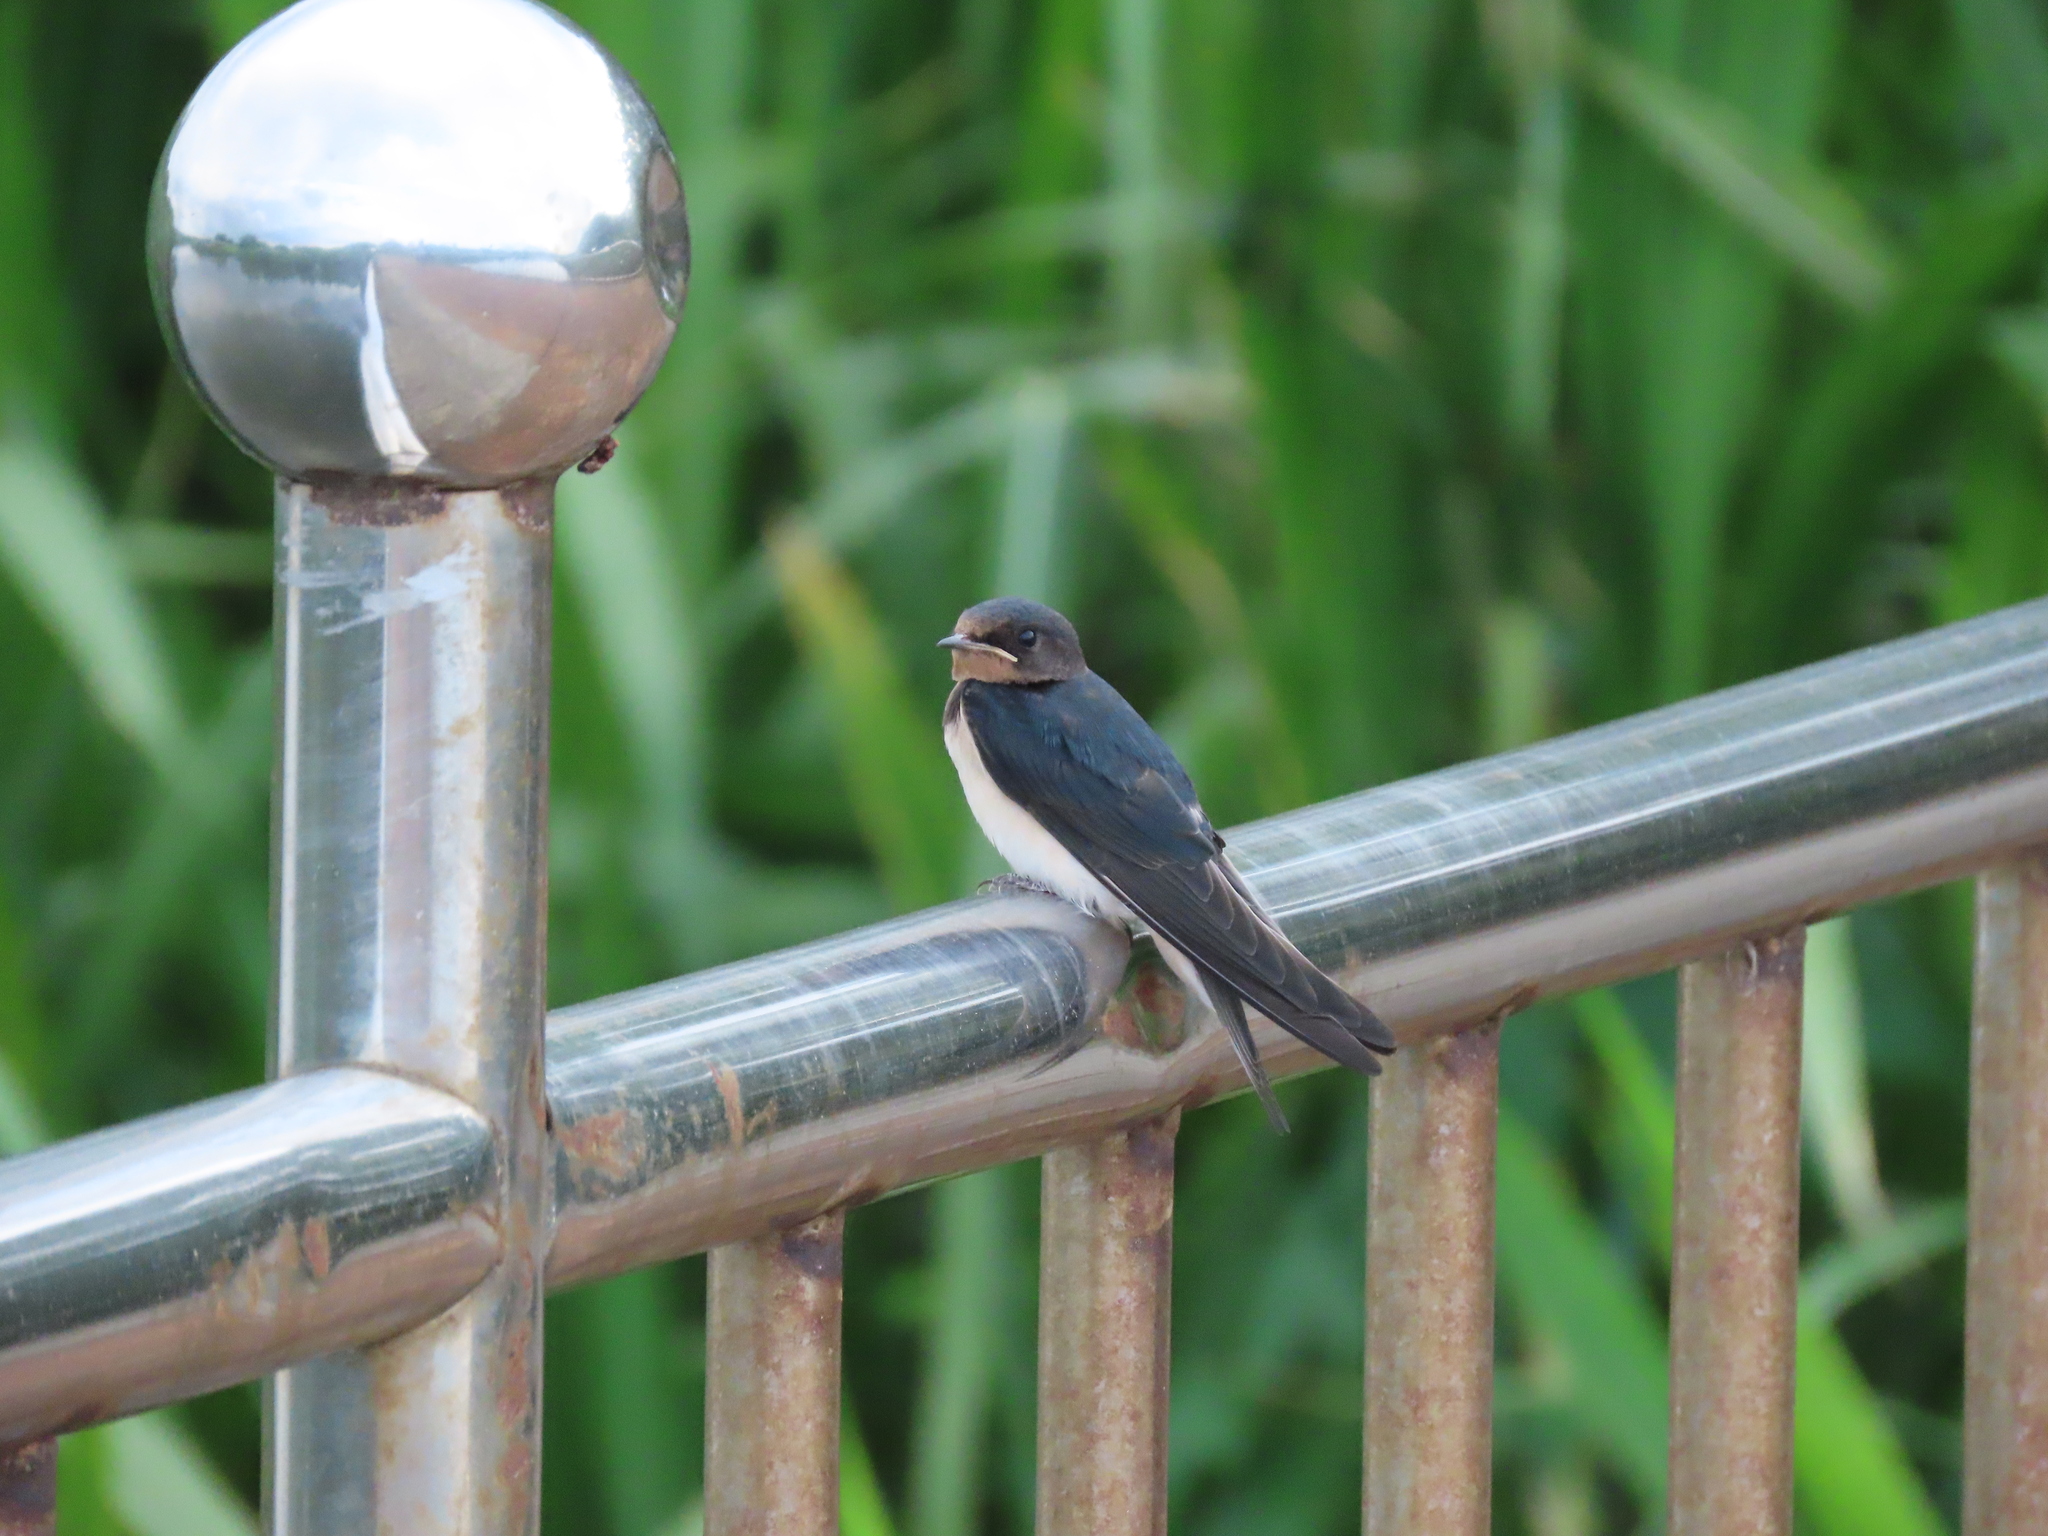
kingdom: Animalia
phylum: Chordata
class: Aves
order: Passeriformes
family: Hirundinidae
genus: Hirundo
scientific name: Hirundo rustica
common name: Barn swallow
